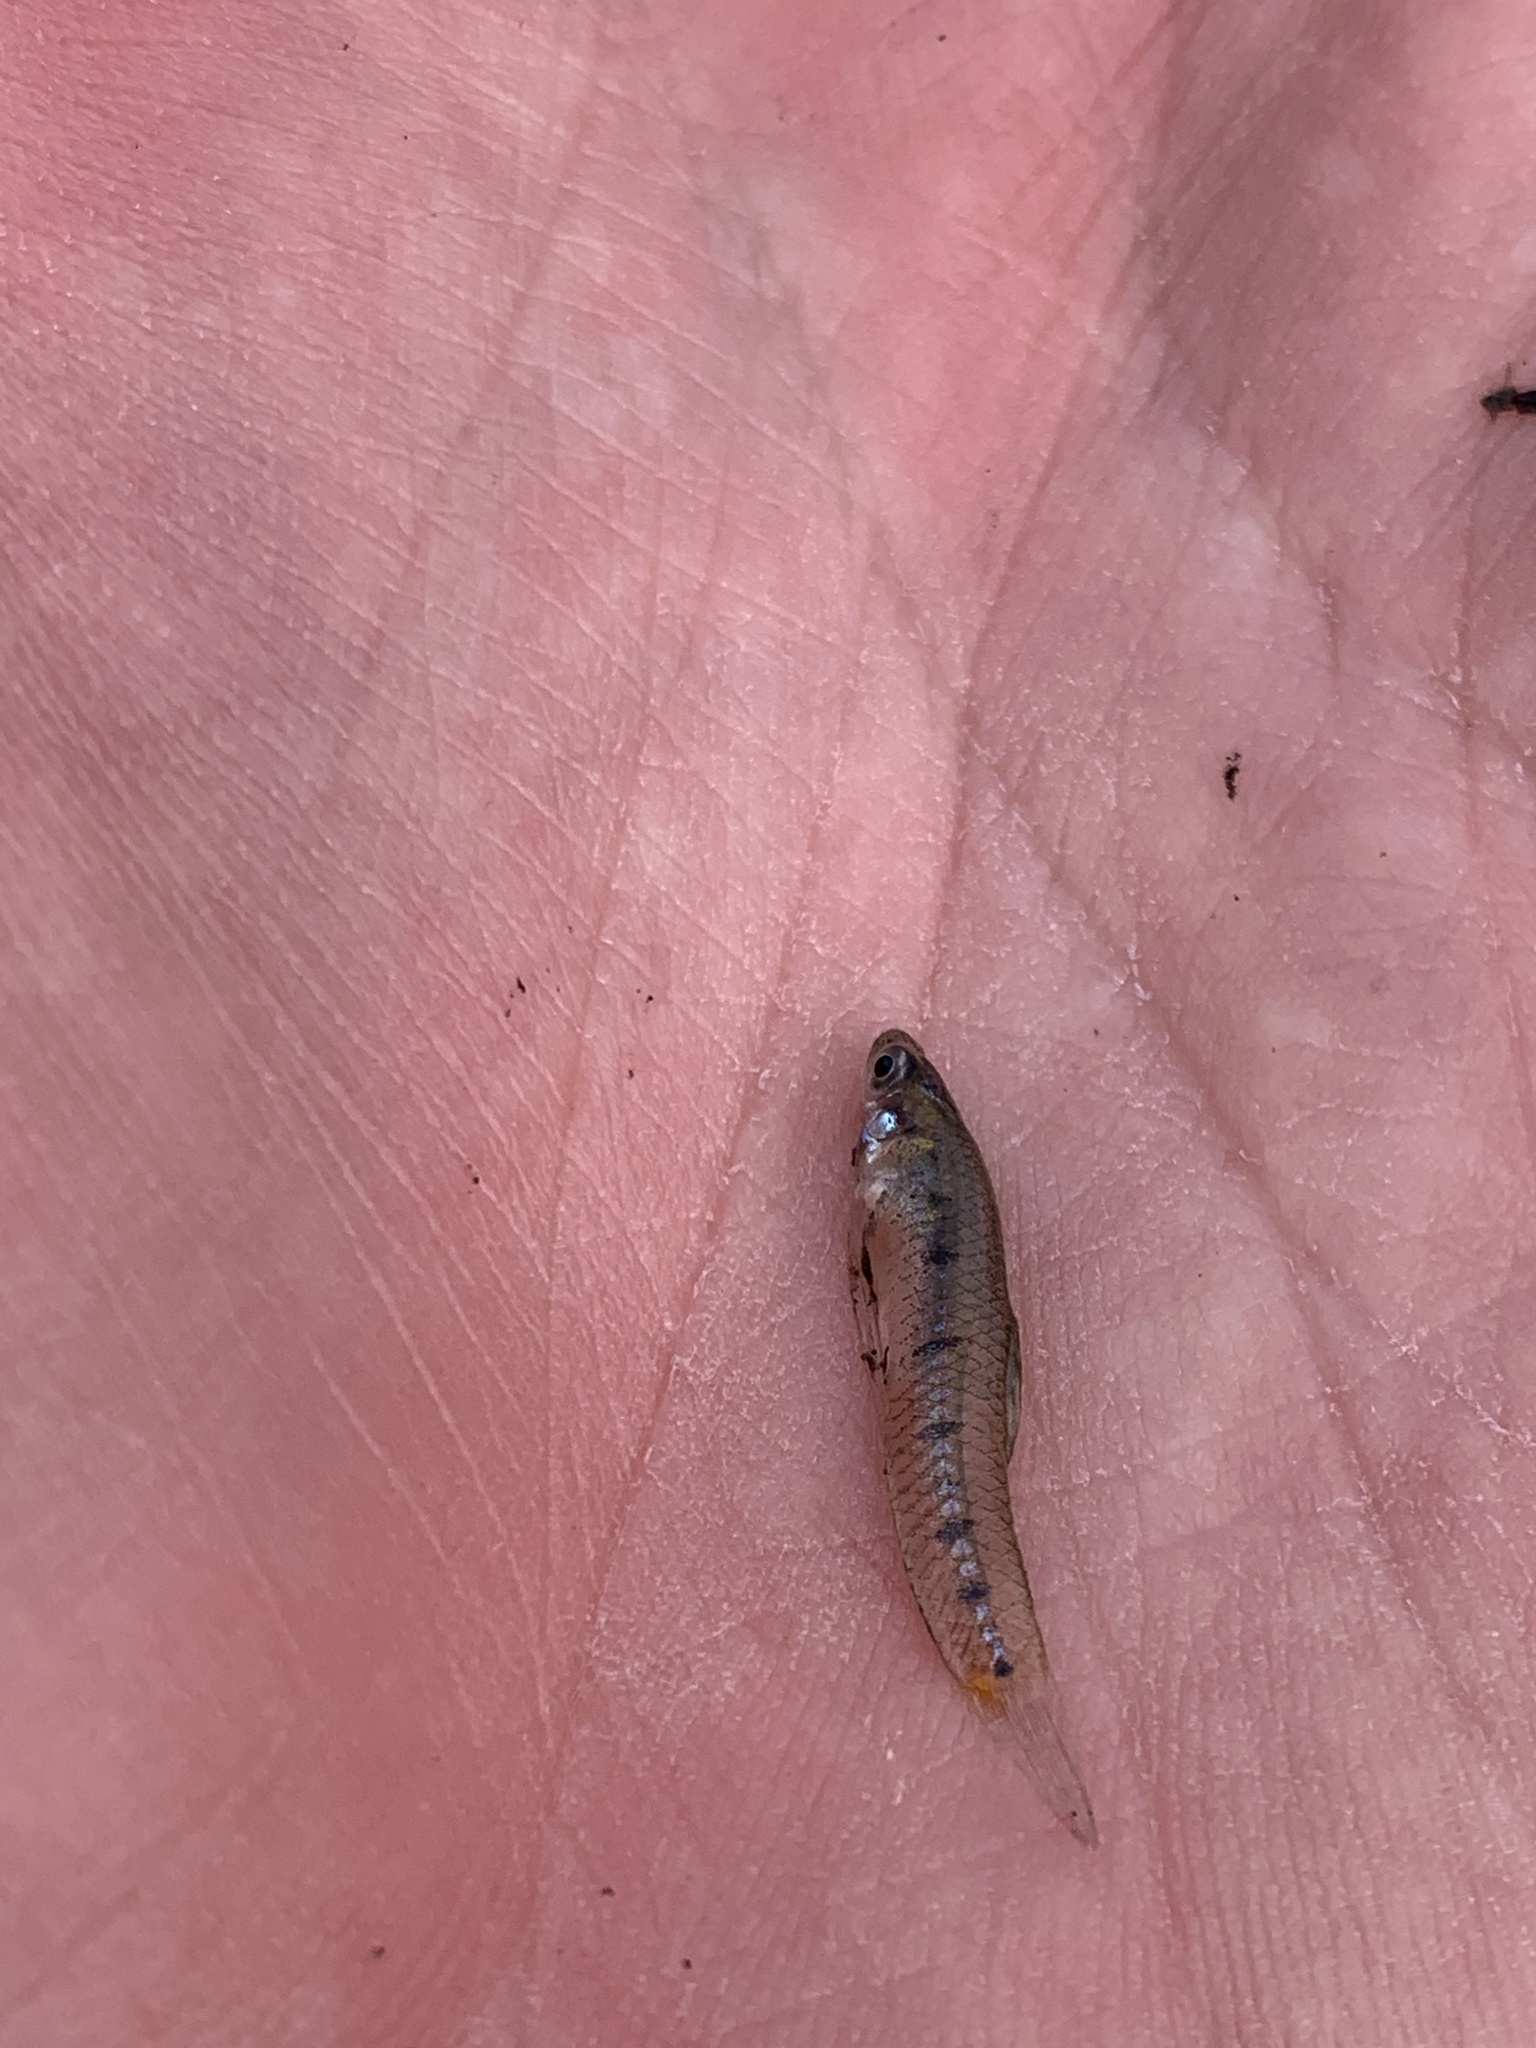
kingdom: Animalia
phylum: Chordata
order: Cyprinodontiformes
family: Poeciliidae
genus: Cnesterodon
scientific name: Cnesterodon decemmaculatus
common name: Ten spotted live-bearer
